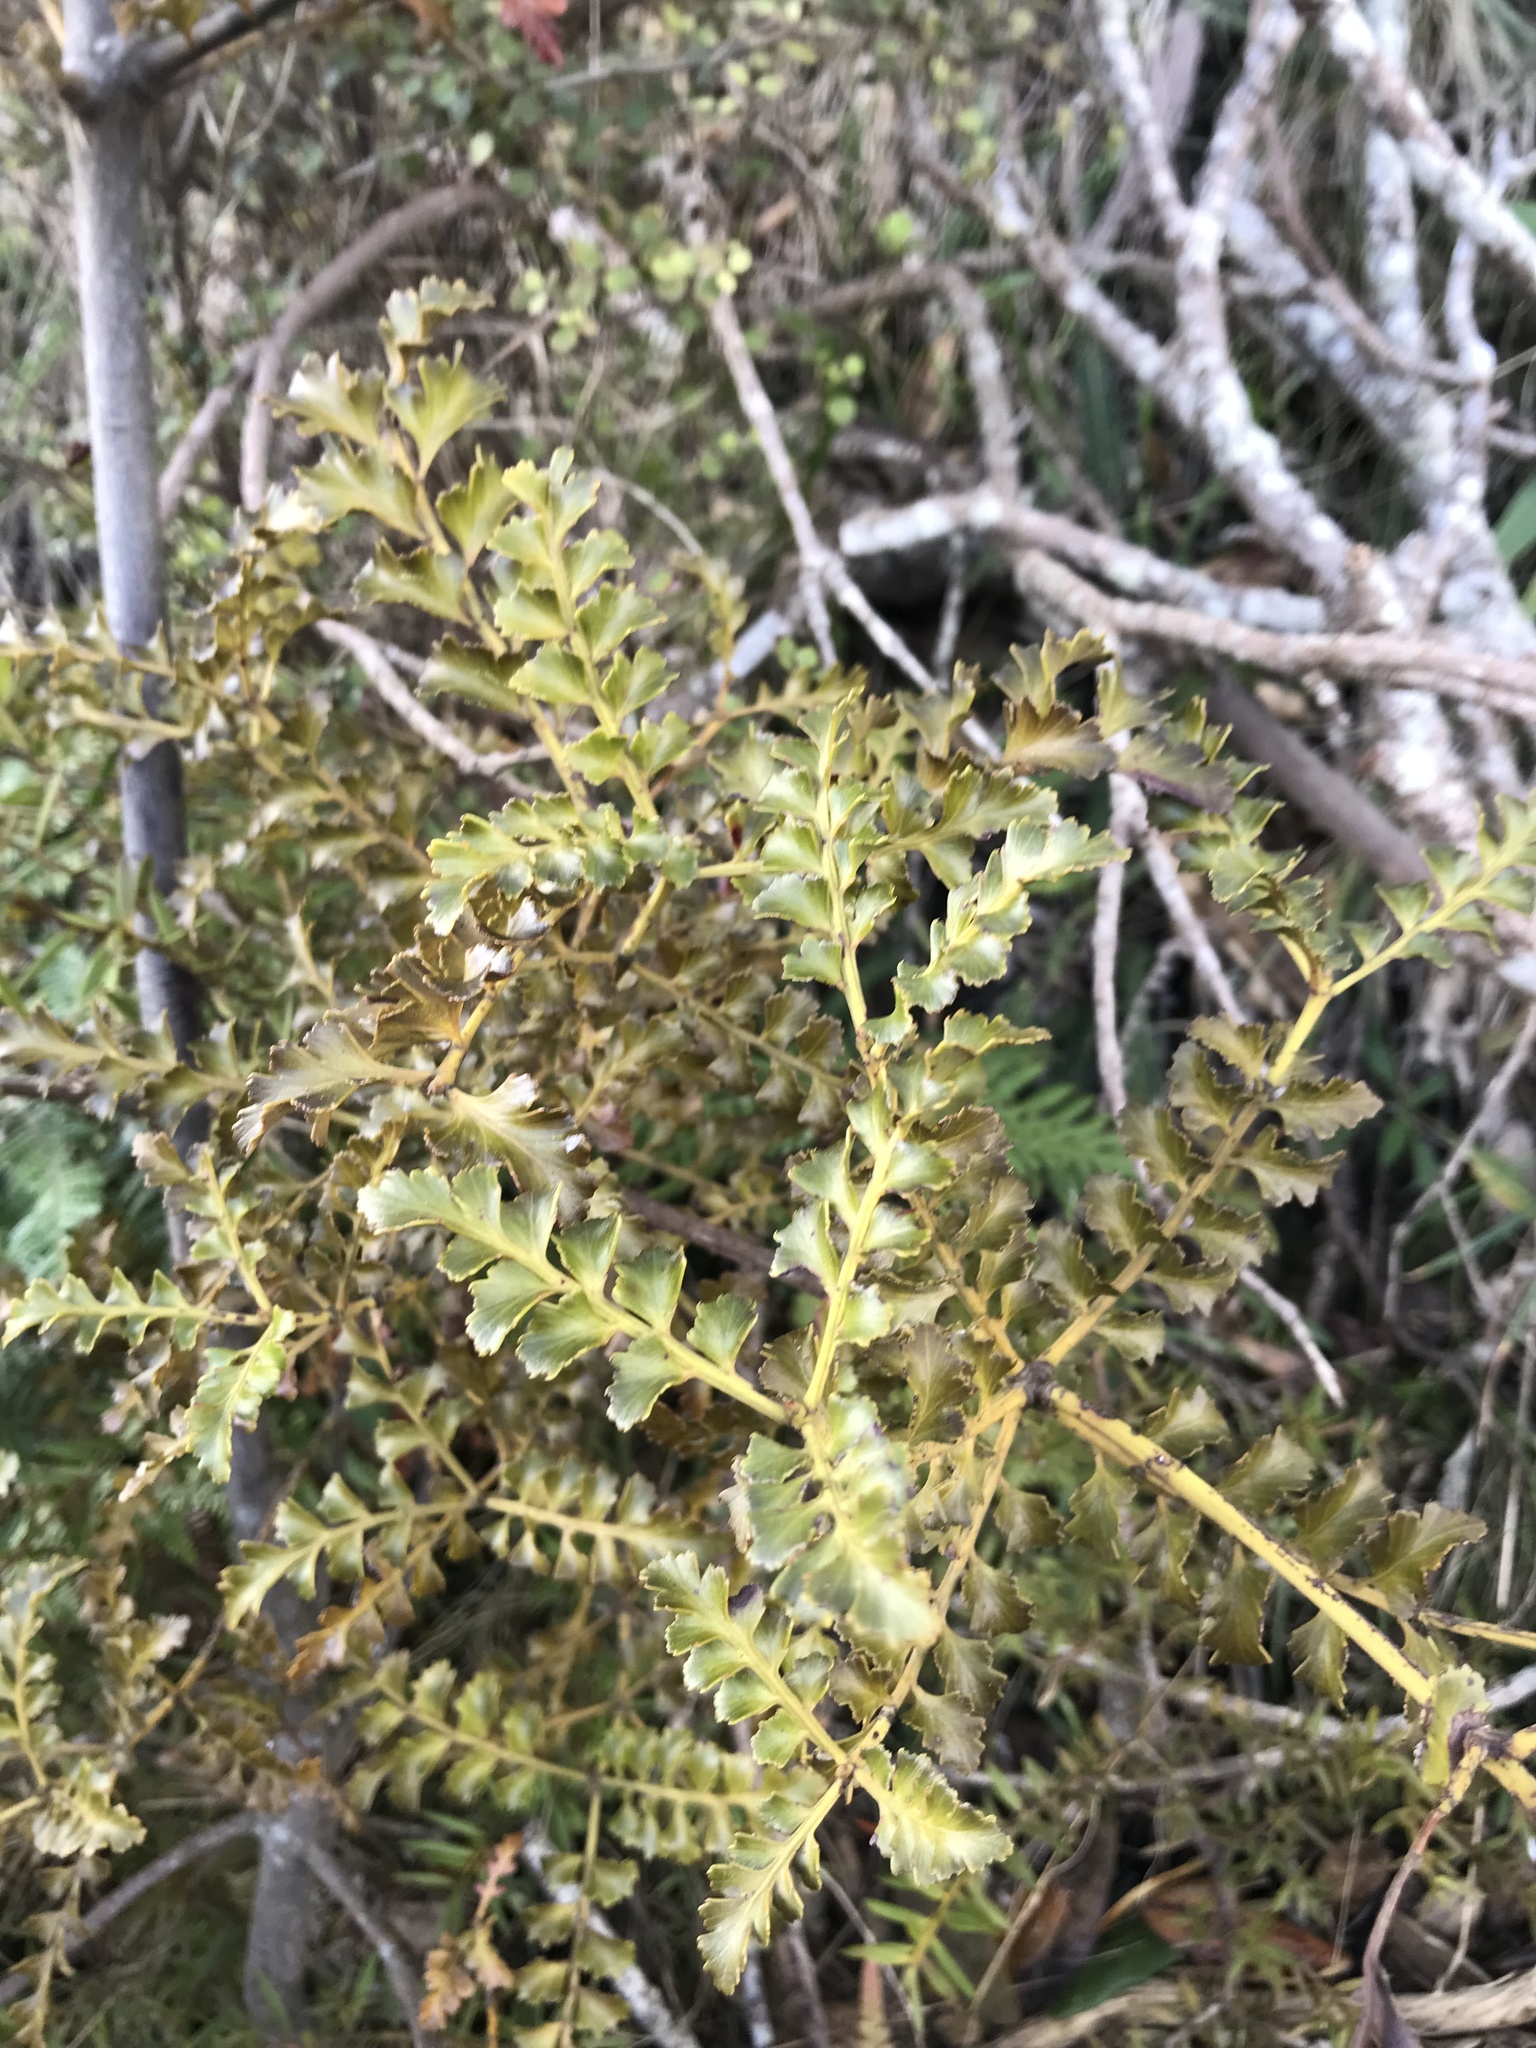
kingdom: Plantae
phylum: Tracheophyta
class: Pinopsida
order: Pinales
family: Phyllocladaceae
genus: Phyllocladus
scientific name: Phyllocladus trichomanoides
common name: Celery pine
